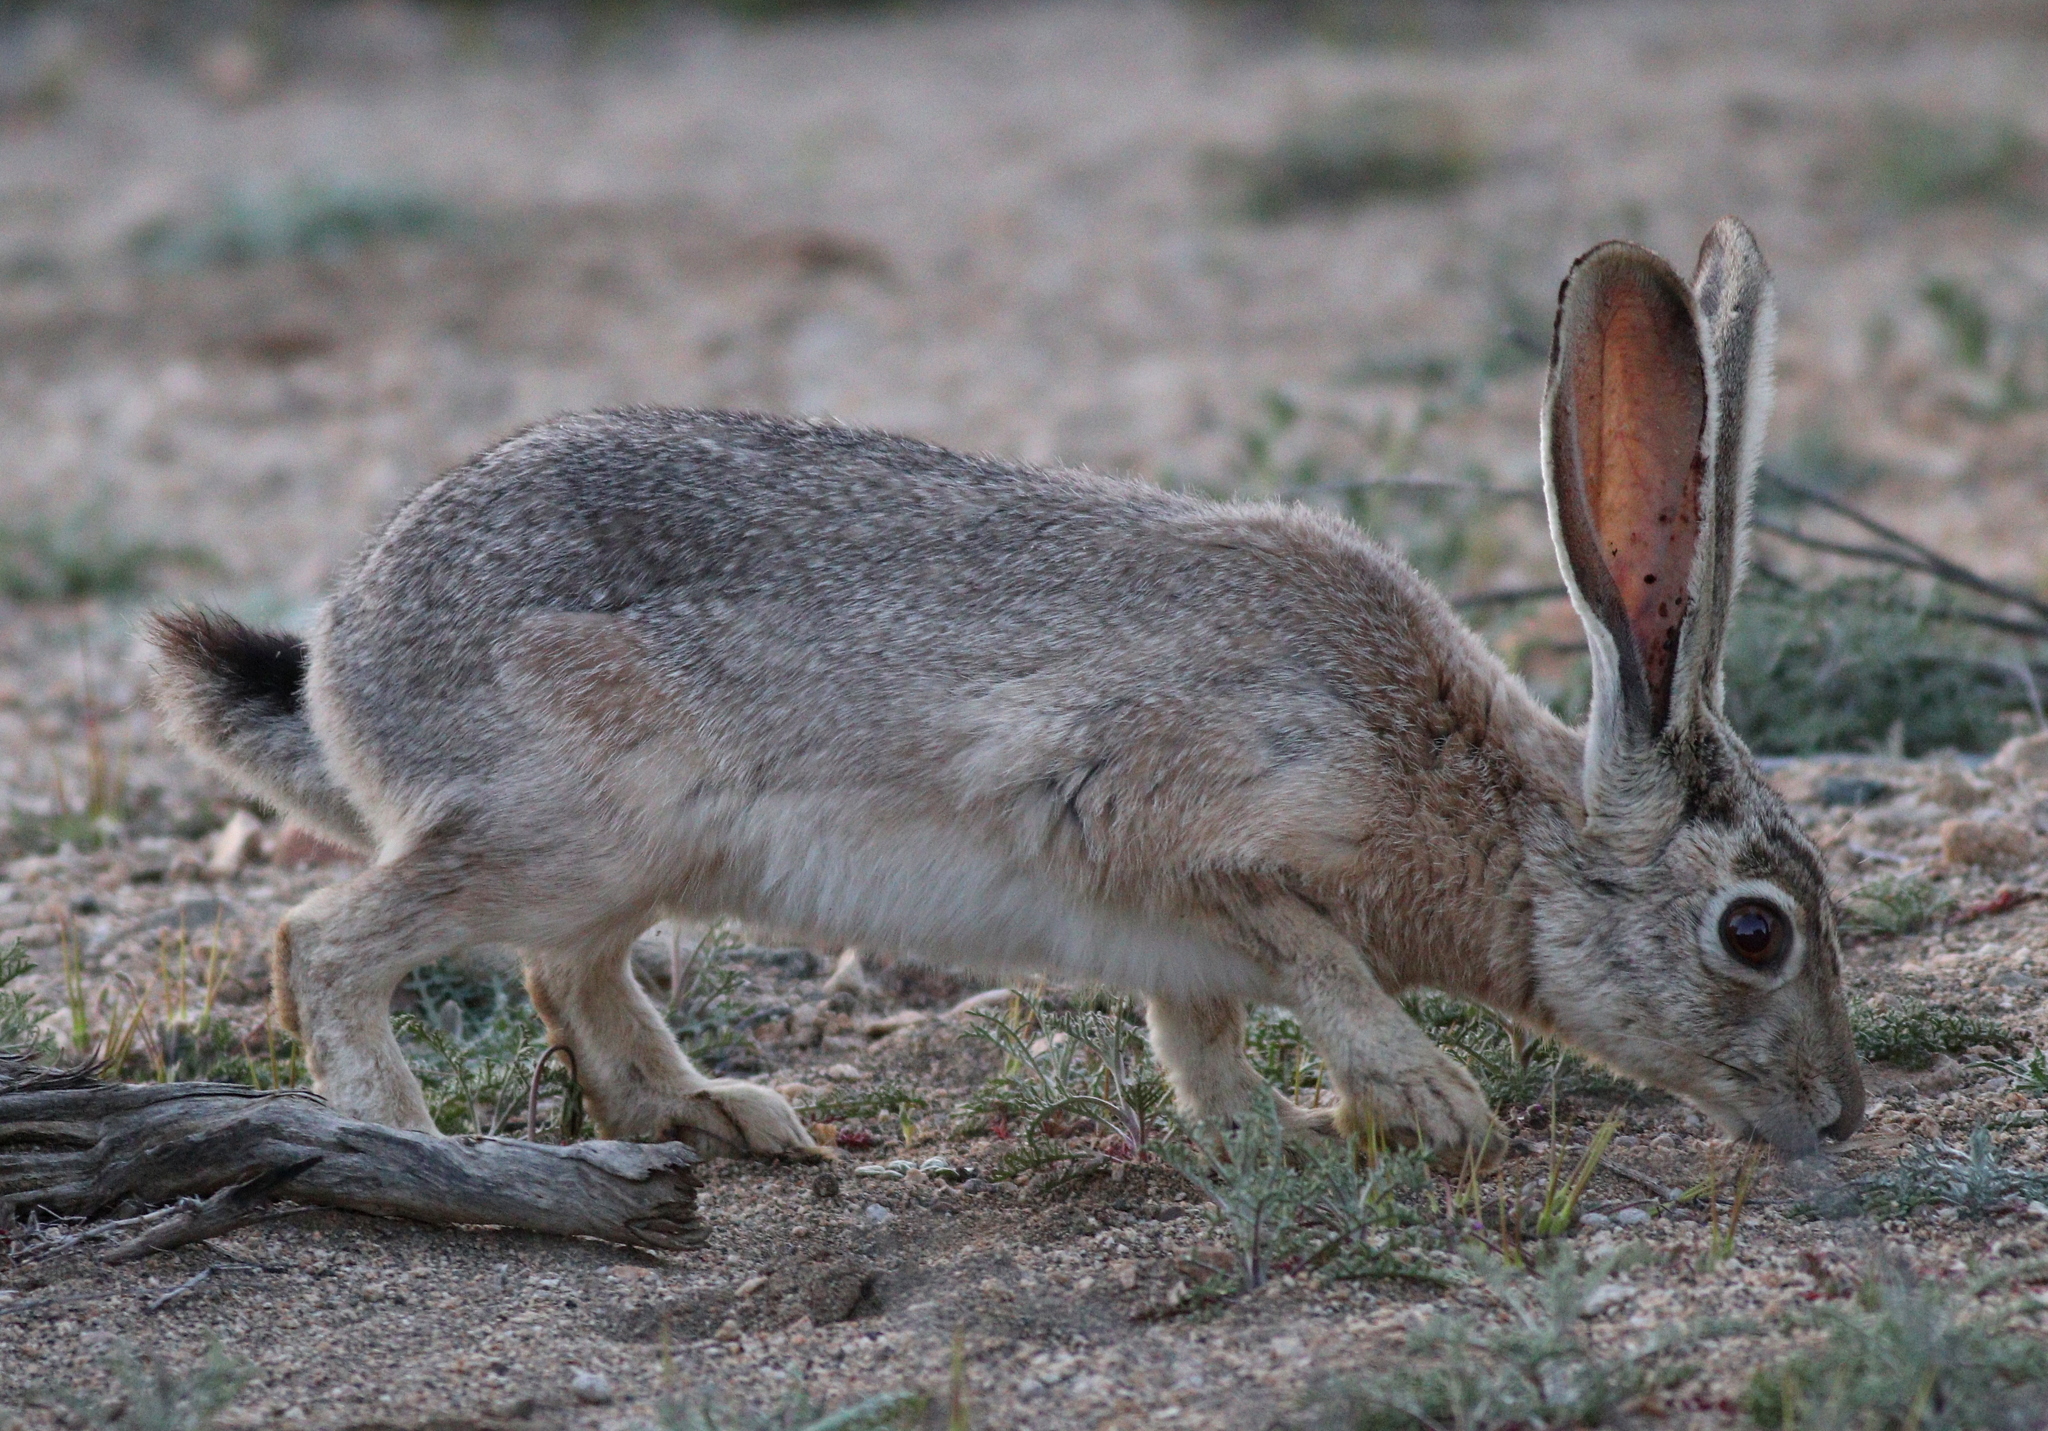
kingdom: Animalia
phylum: Chordata
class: Mammalia
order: Lagomorpha
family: Leporidae
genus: Lepus
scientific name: Lepus californicus
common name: Black-tailed jackrabbit
